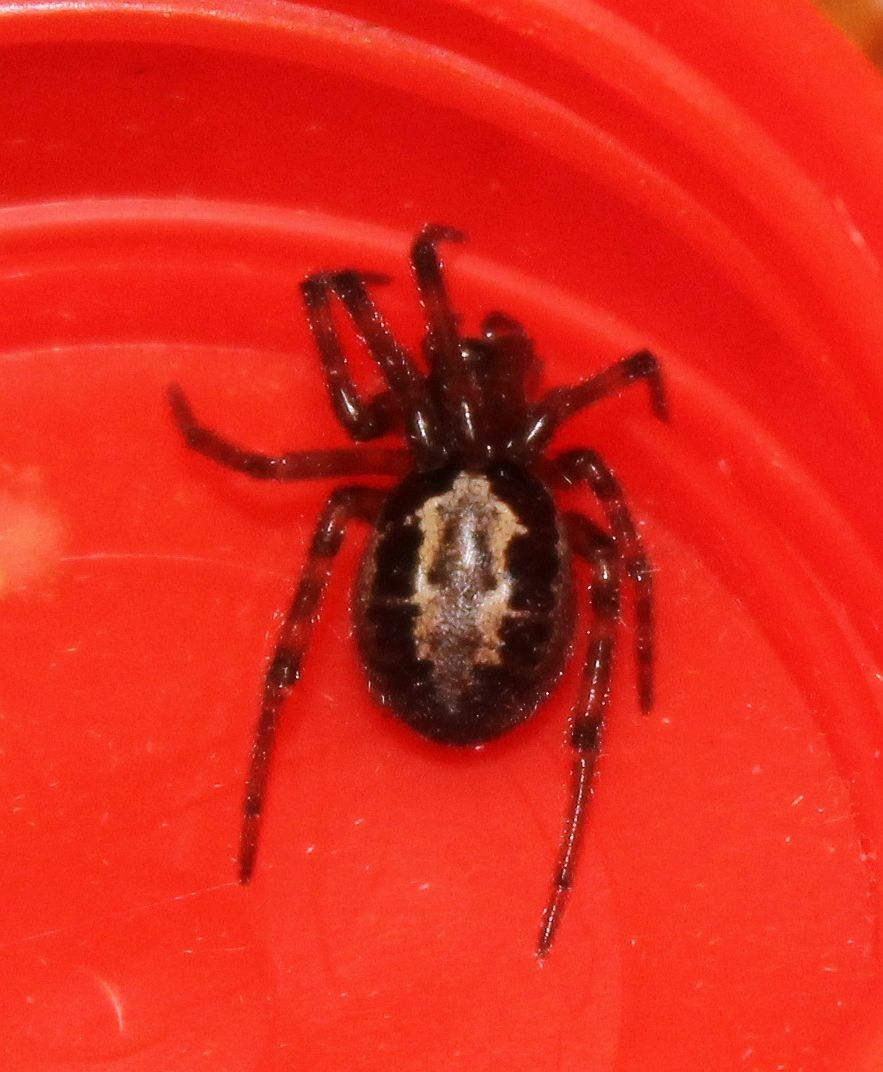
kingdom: Animalia
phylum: Arthropoda
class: Arachnida
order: Araneae
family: Theridiidae
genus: Steatoda
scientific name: Steatoda nobilis
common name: Cobweb weaver
